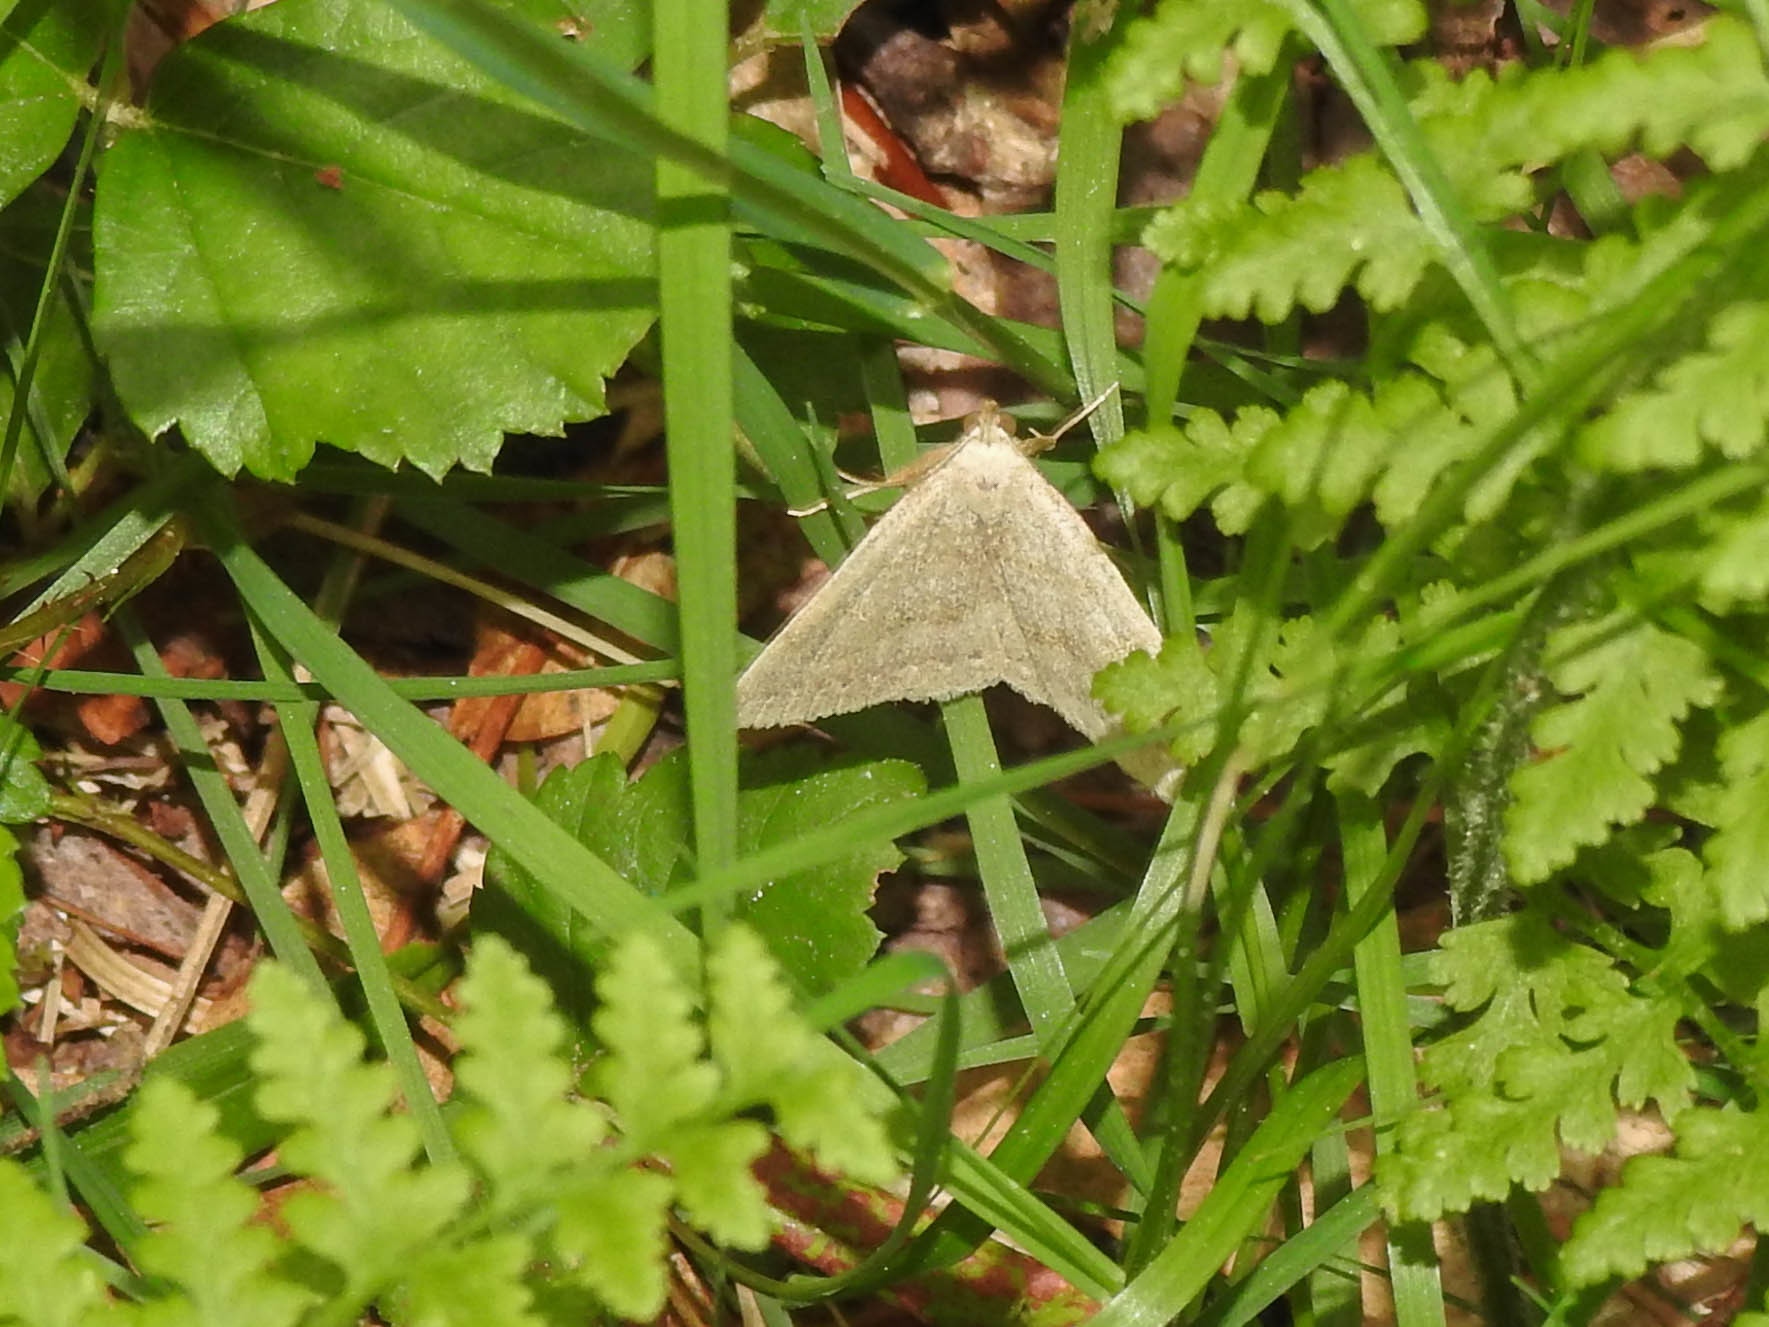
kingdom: Animalia
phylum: Arthropoda
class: Insecta
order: Lepidoptera
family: Erebidae
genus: Macrochilo
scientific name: Macrochilo morbidalis
